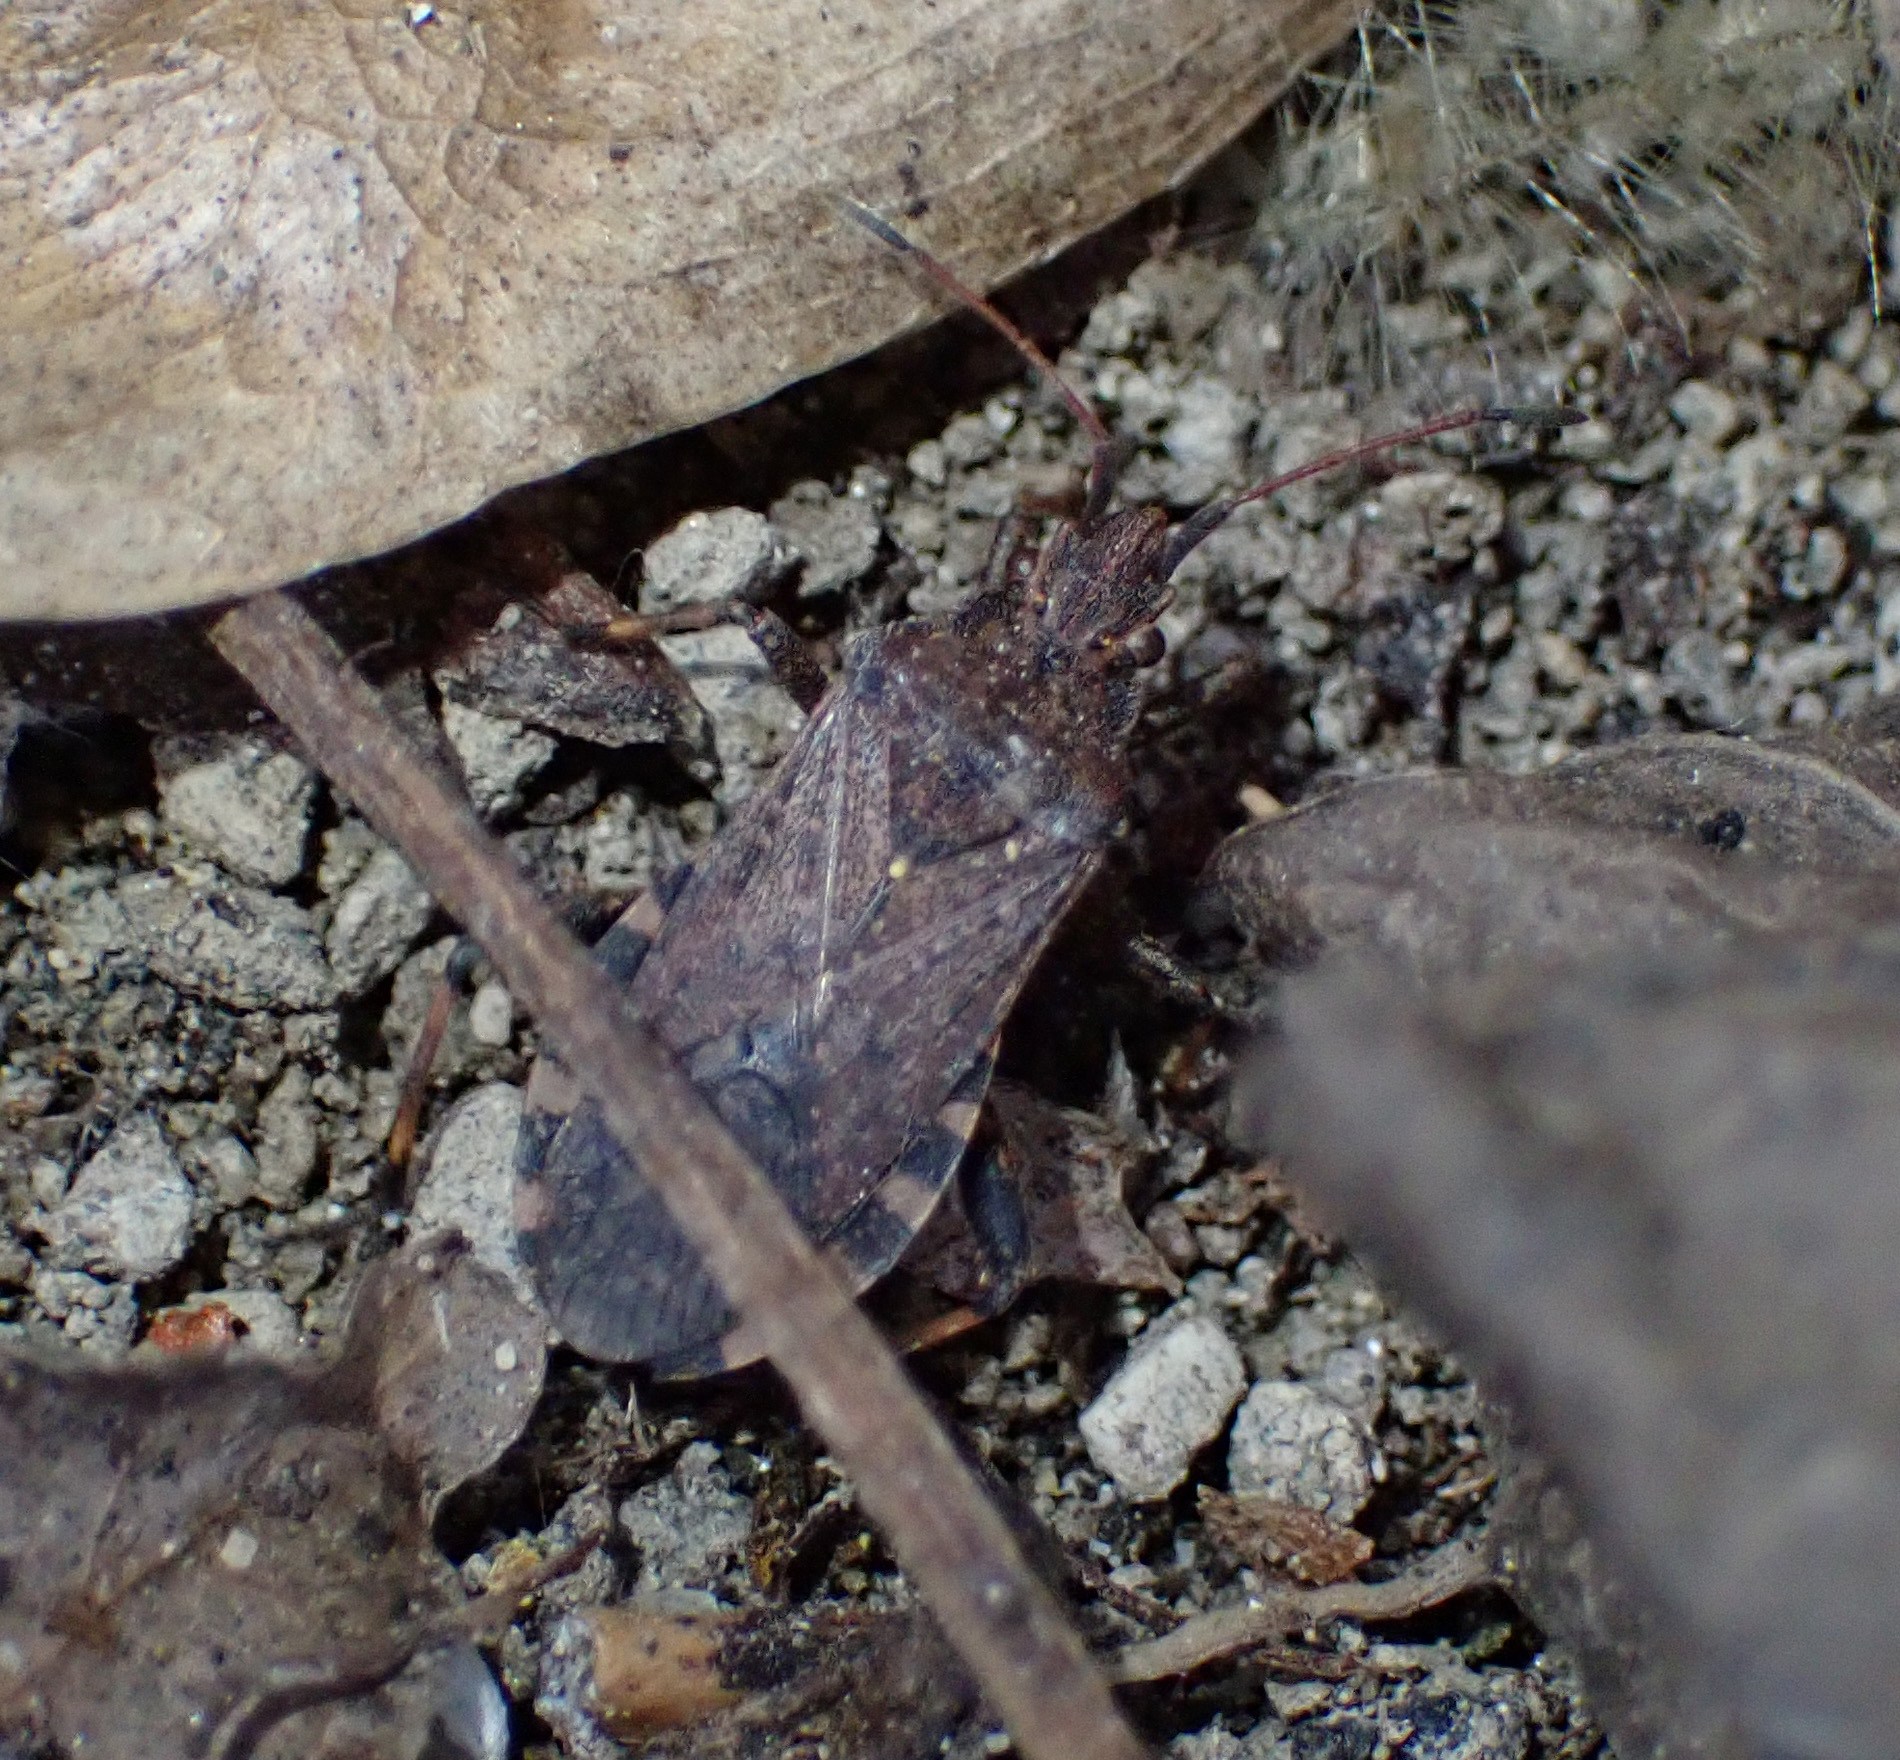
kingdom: Animalia
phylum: Arthropoda
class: Insecta
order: Hemiptera
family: Coreidae
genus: Ceraleptus
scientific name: Ceraleptus gracilicornis
